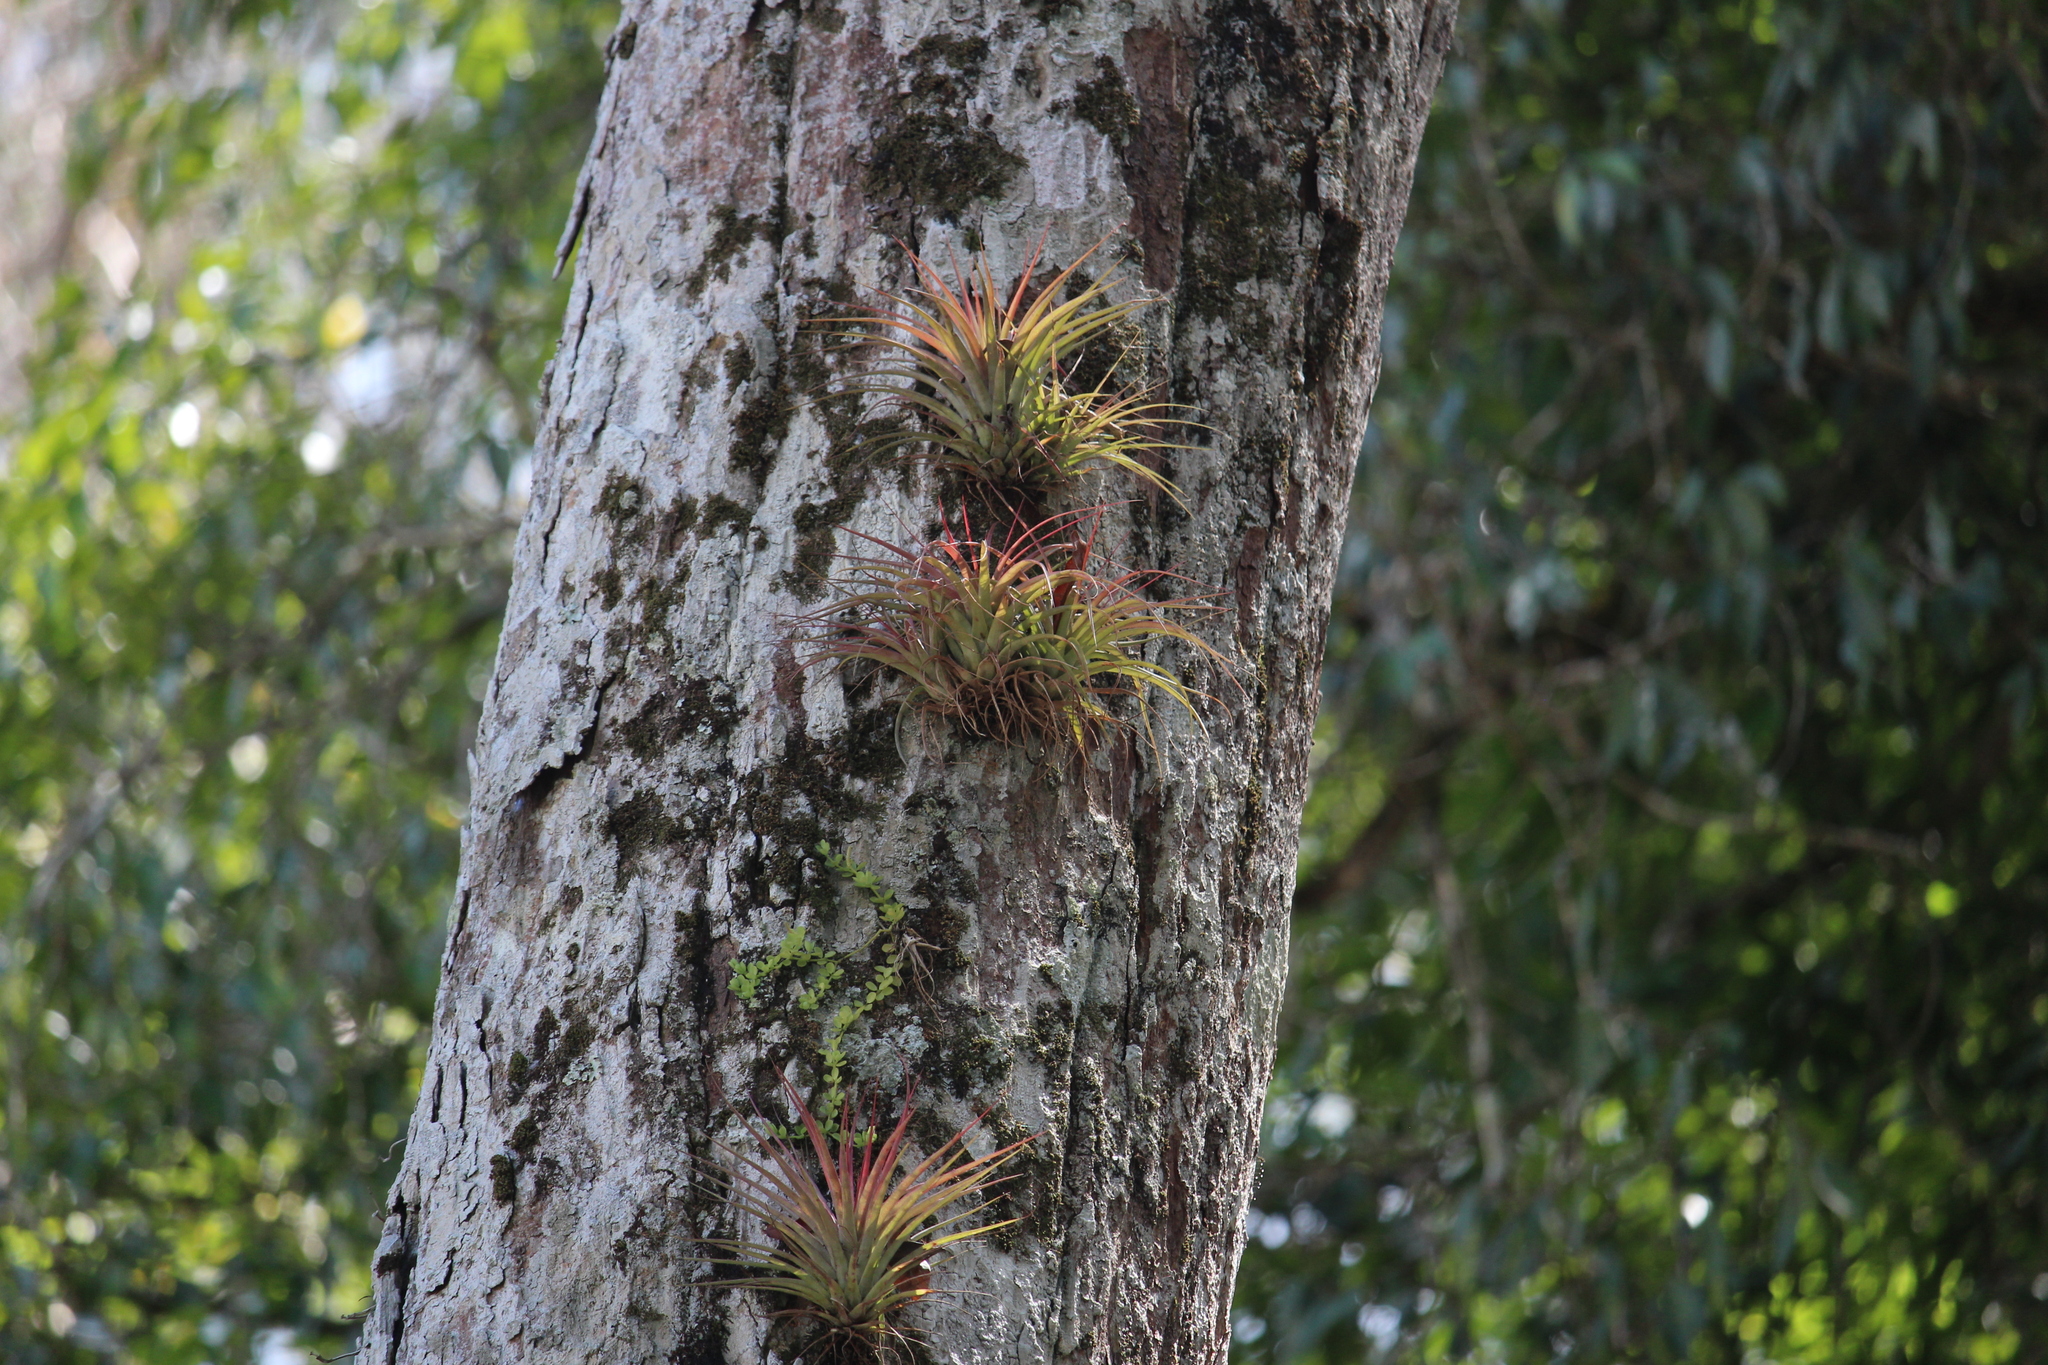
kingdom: Plantae
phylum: Tracheophyta
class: Liliopsida
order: Poales
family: Bromeliaceae
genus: Tillandsia
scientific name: Tillandsia brachycaulos
